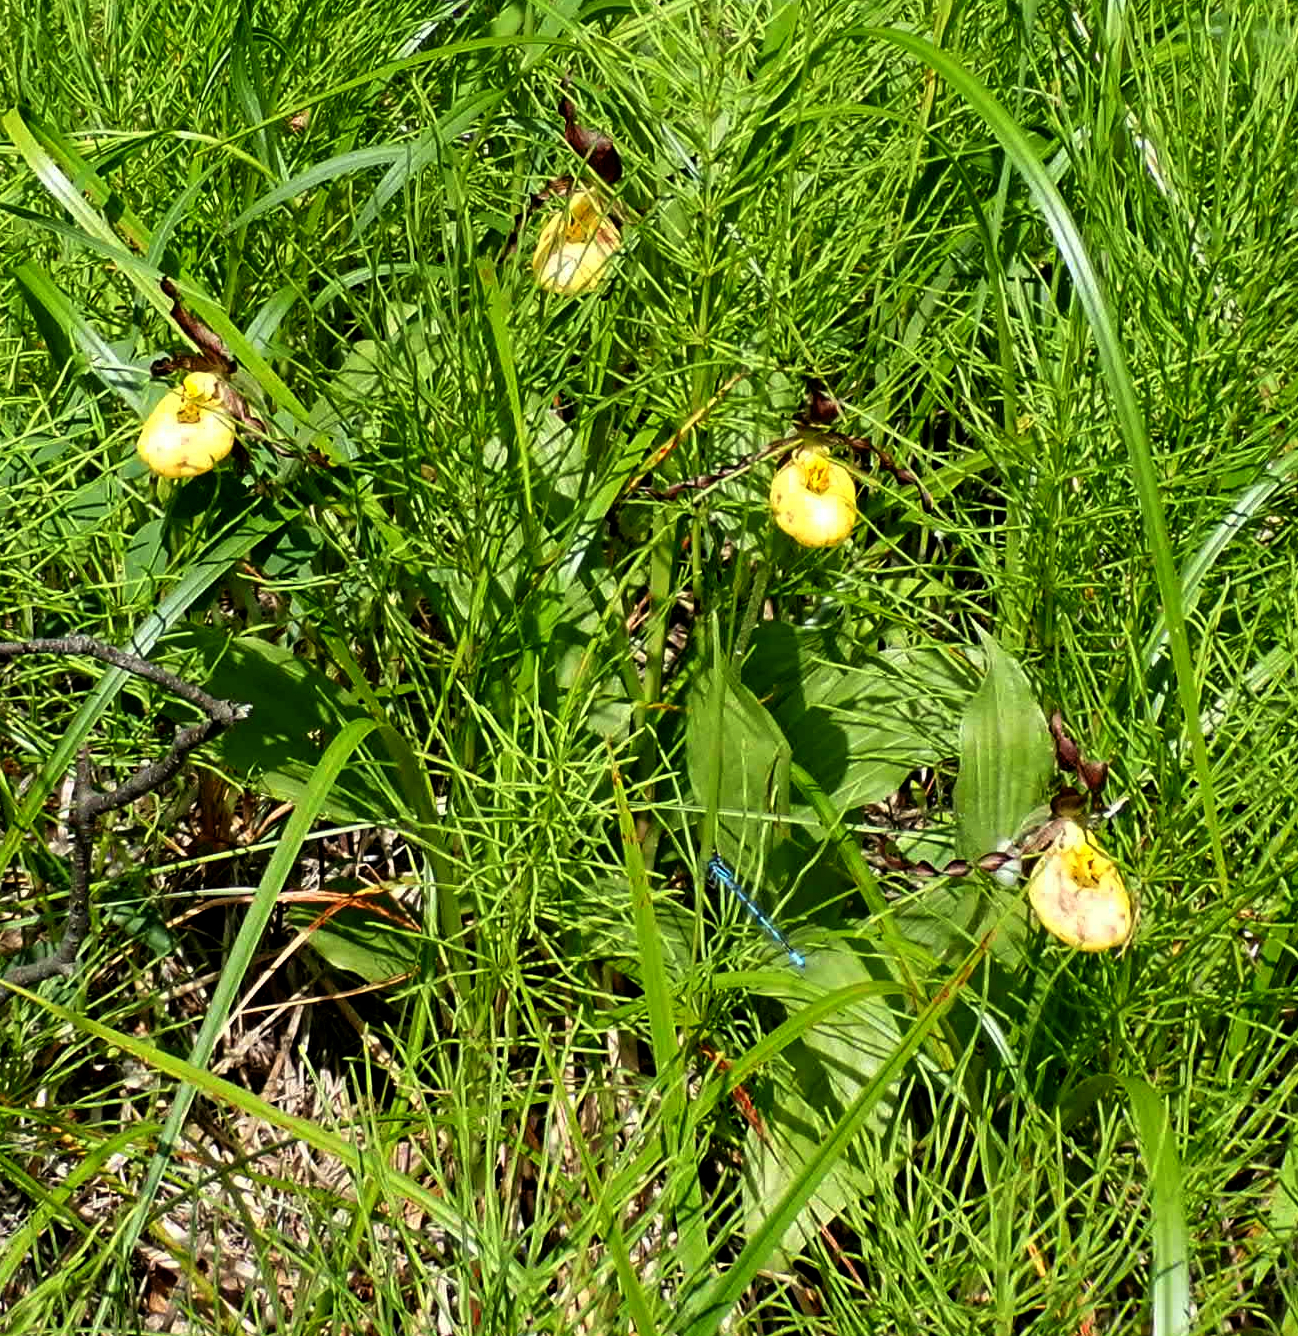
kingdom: Plantae
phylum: Tracheophyta
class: Liliopsida
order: Asparagales
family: Orchidaceae
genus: Cypripedium
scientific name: Cypripedium parviflorum
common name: American yellow lady's-slipper
